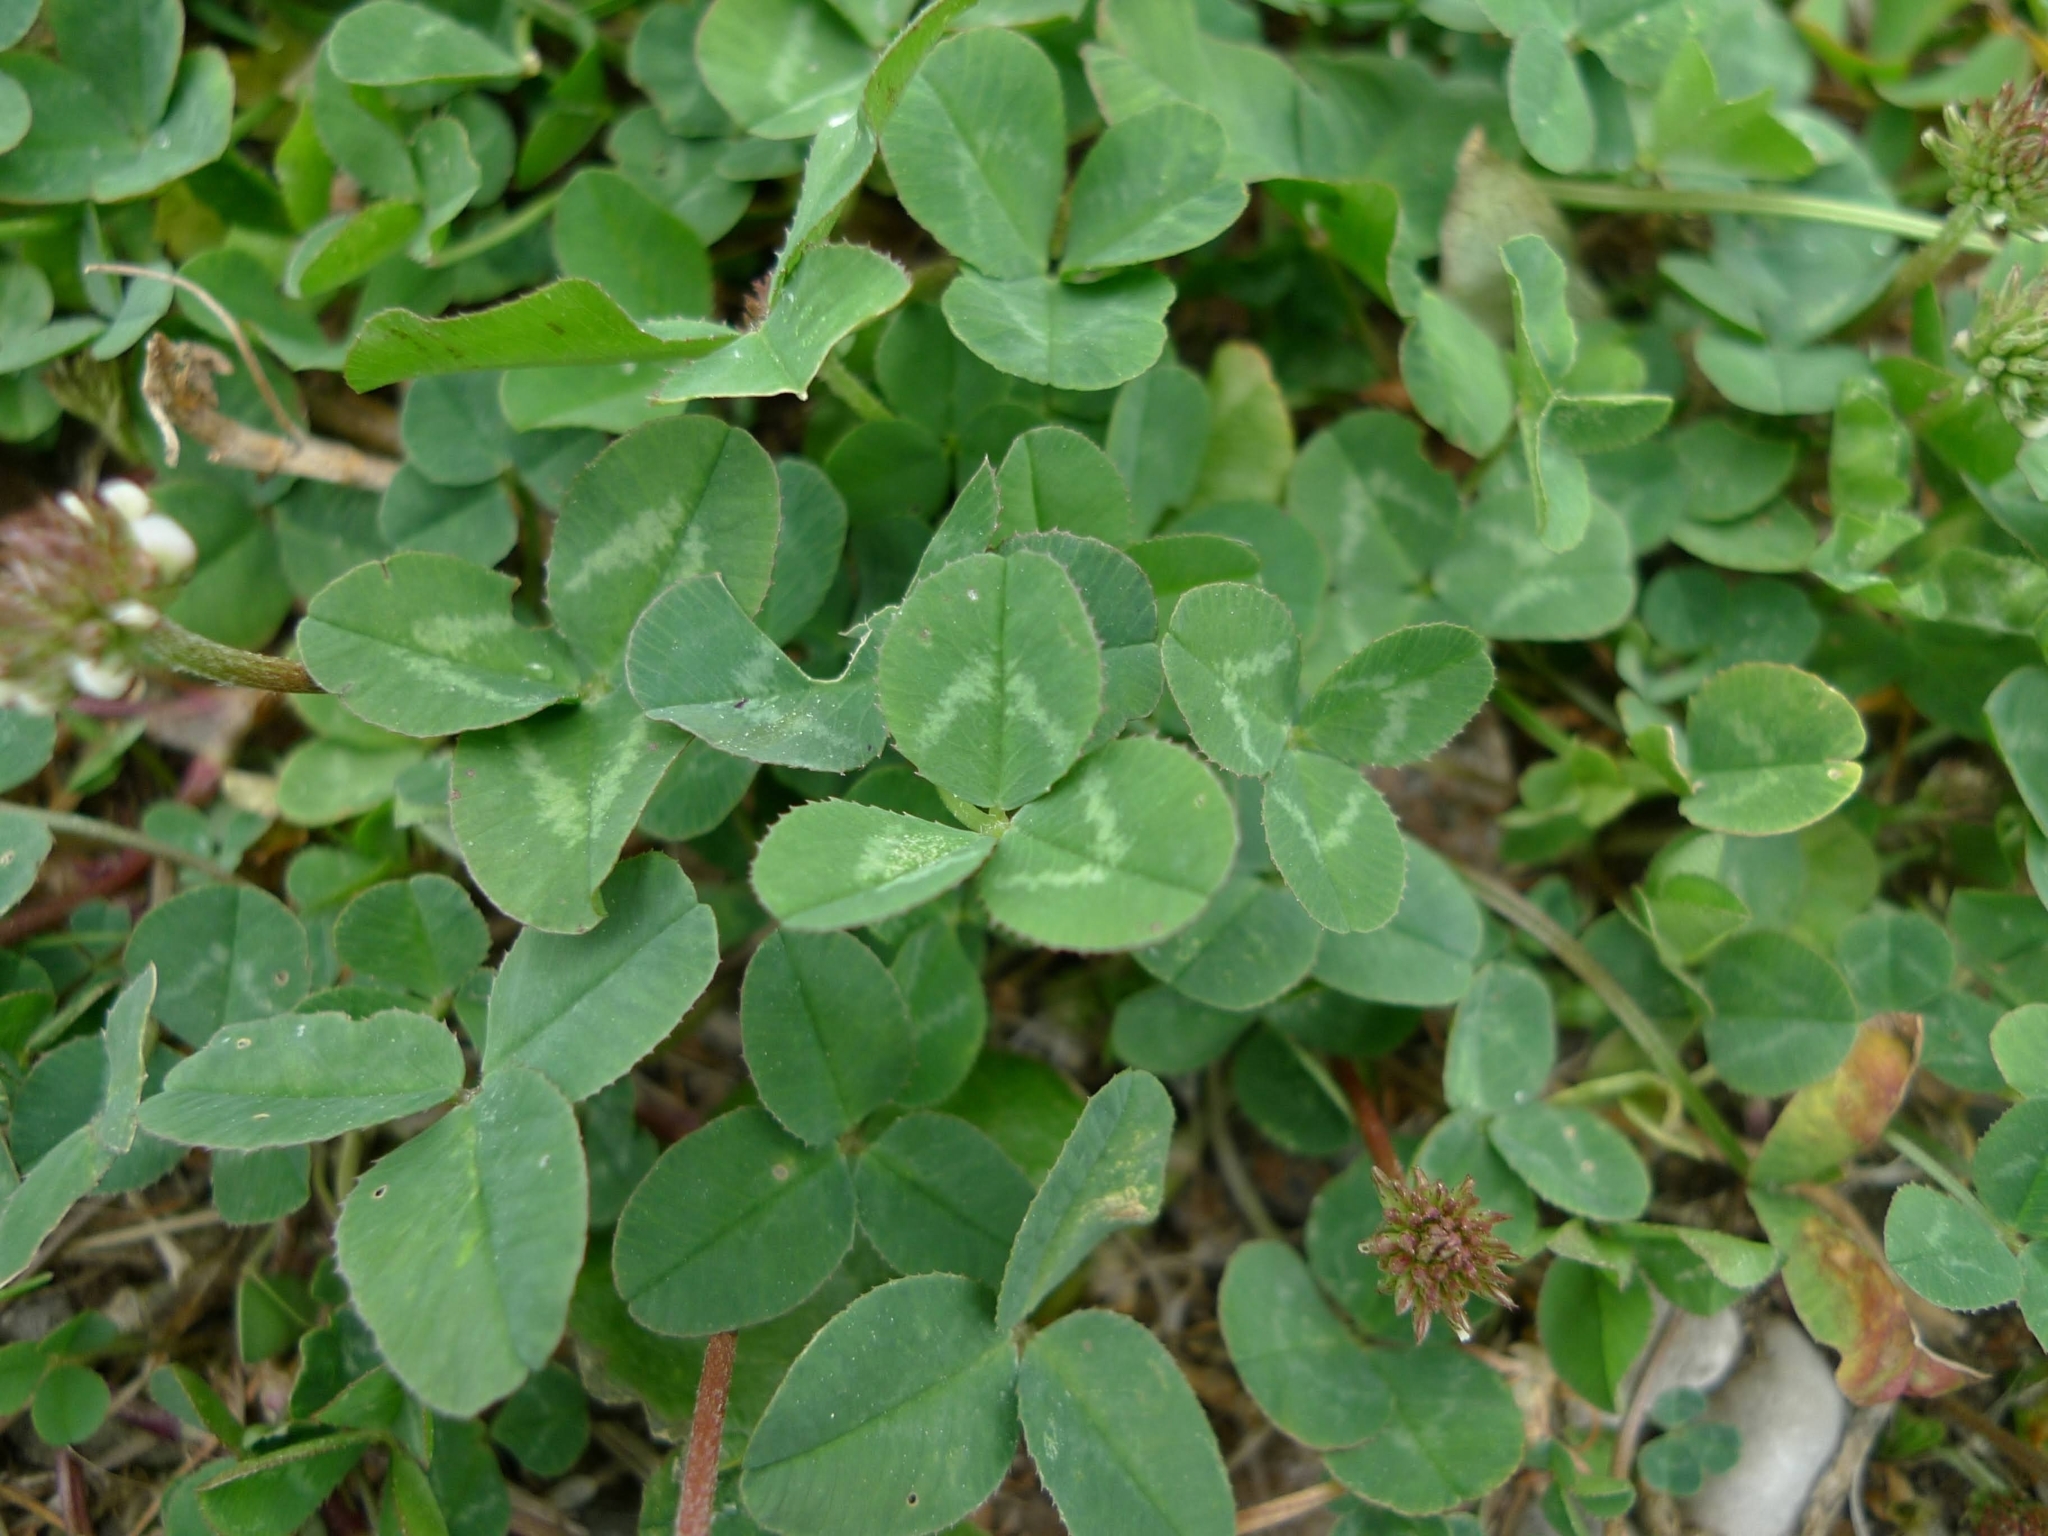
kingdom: Plantae
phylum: Tracheophyta
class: Magnoliopsida
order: Fabales
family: Fabaceae
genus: Trifolium
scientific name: Trifolium repens
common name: White clover
